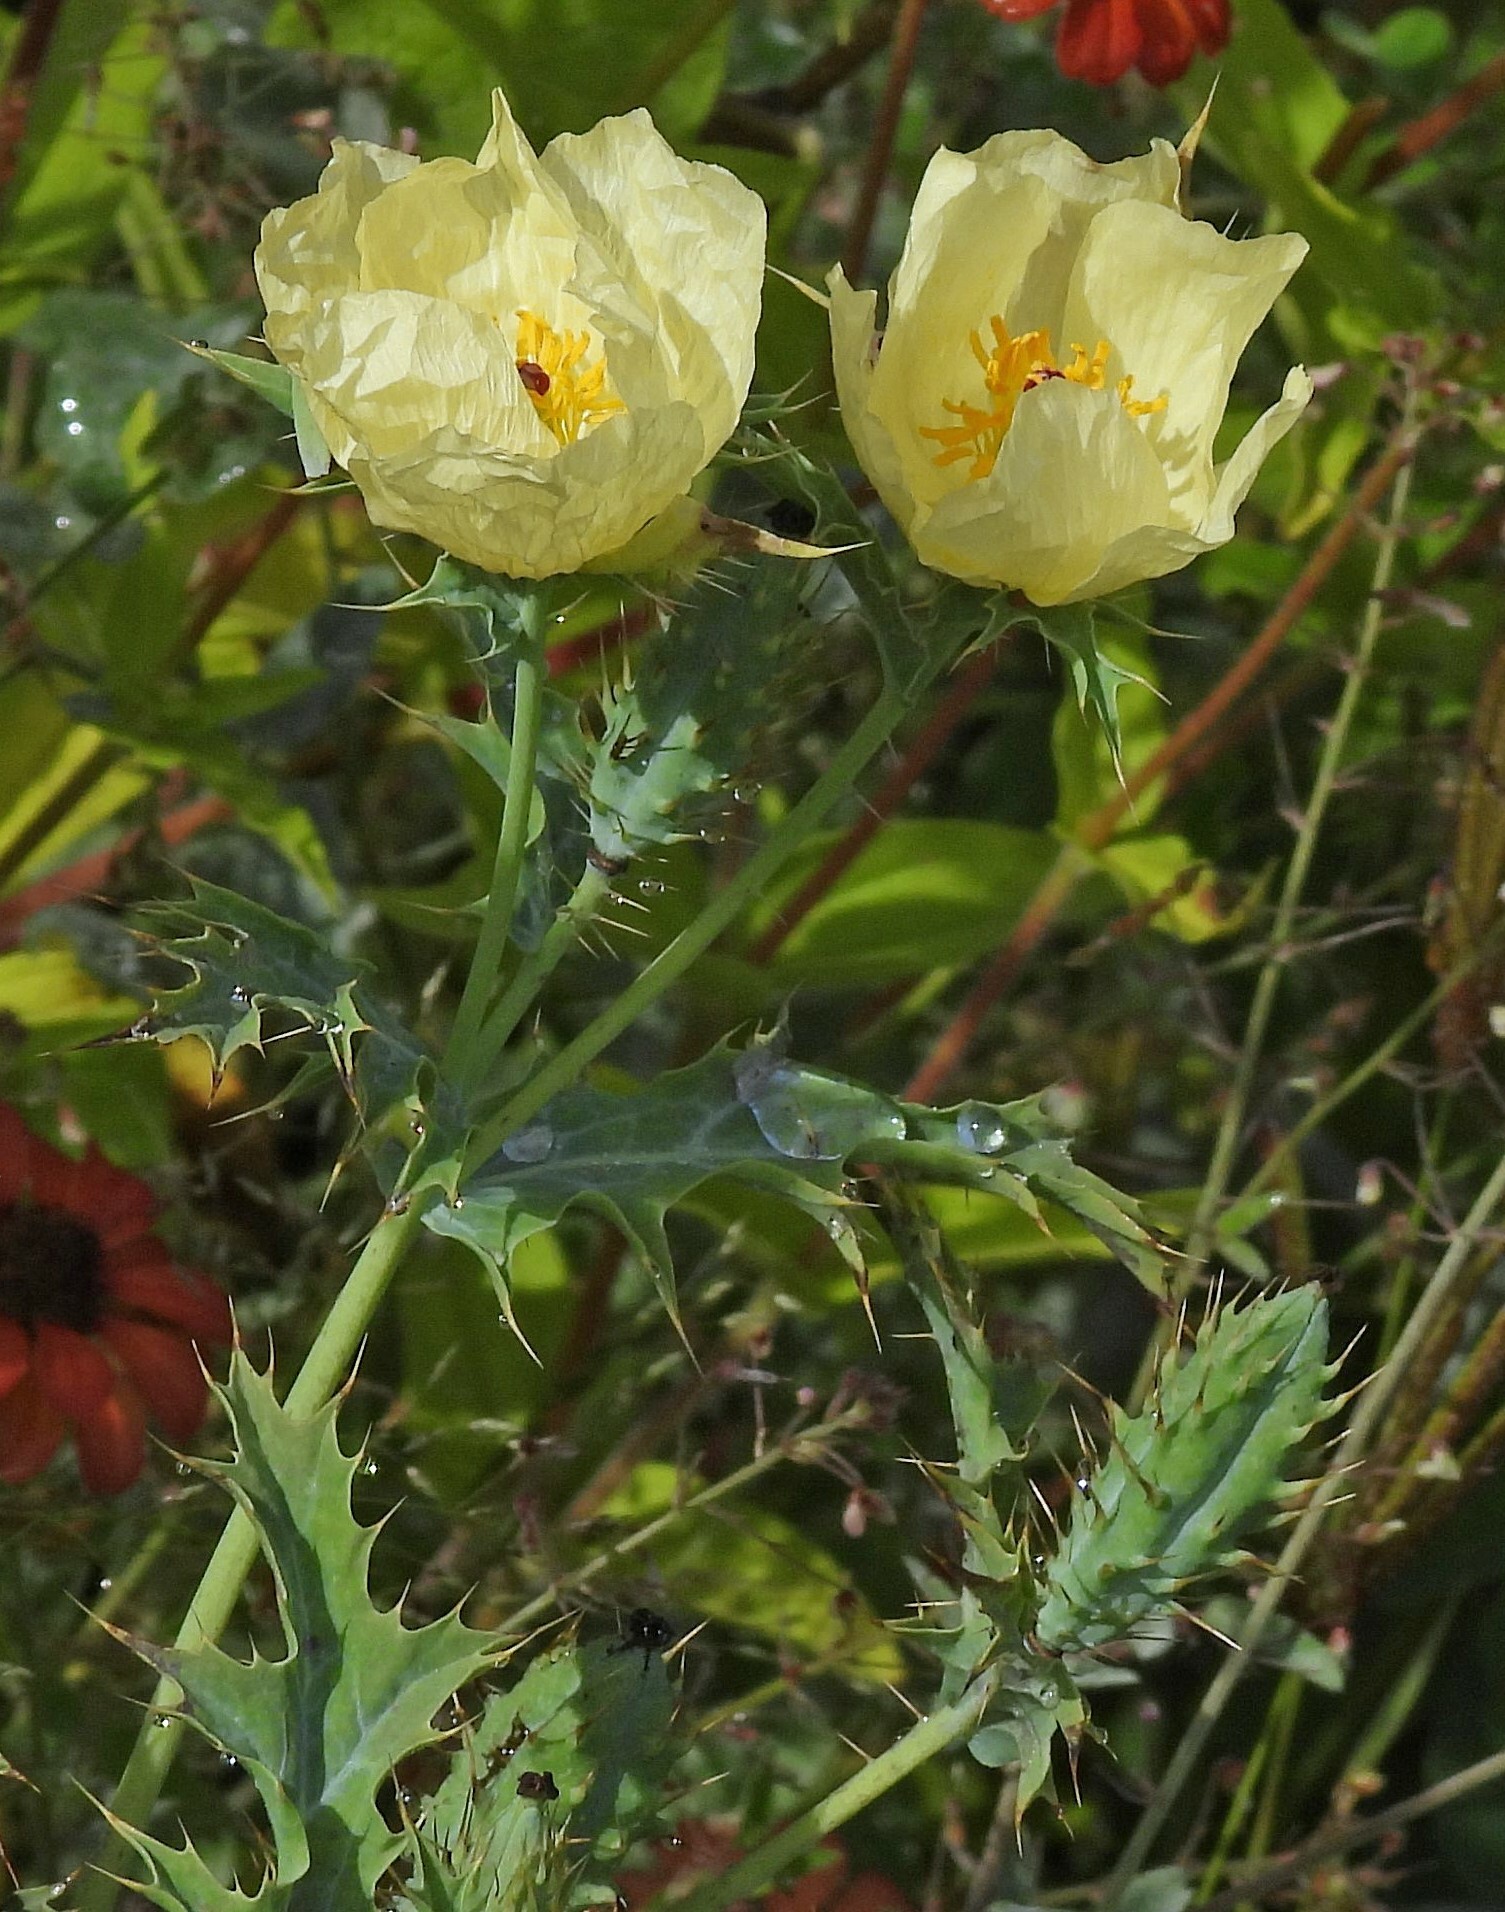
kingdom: Plantae
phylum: Tracheophyta
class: Magnoliopsida
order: Ranunculales
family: Papaveraceae
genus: Argemone
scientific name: Argemone subfusiformis
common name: American-poppy
